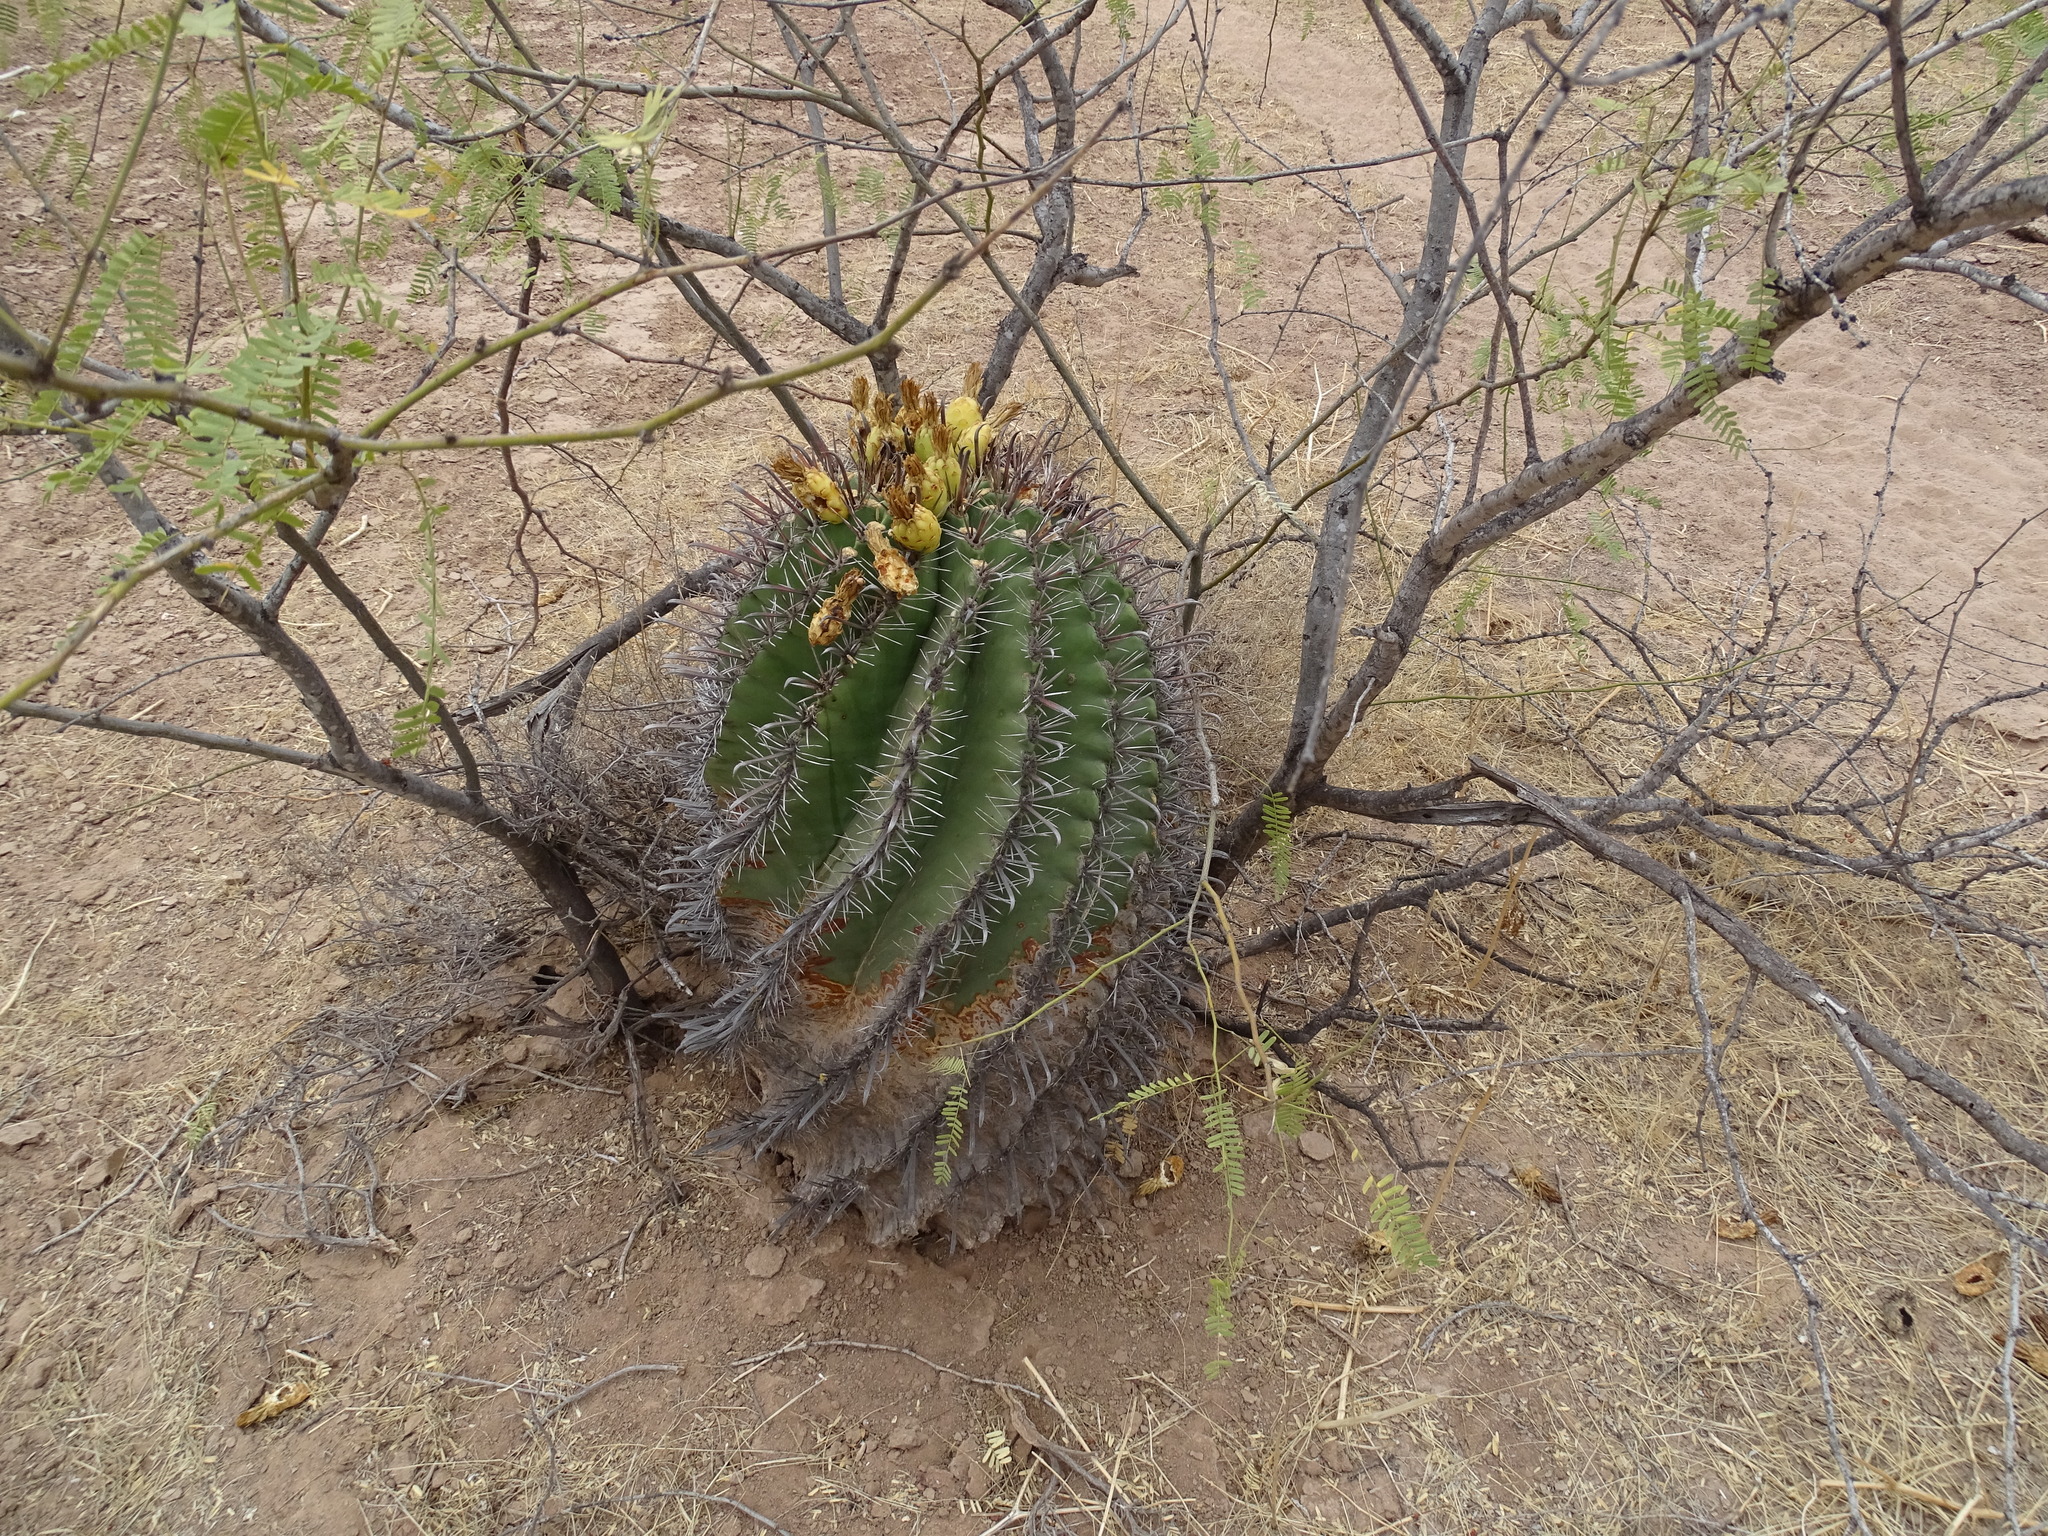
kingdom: Plantae
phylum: Tracheophyta
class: Magnoliopsida
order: Caryophyllales
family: Cactaceae
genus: Ferocactus
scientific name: Ferocactus wislizeni
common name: Candy barrel cactus
